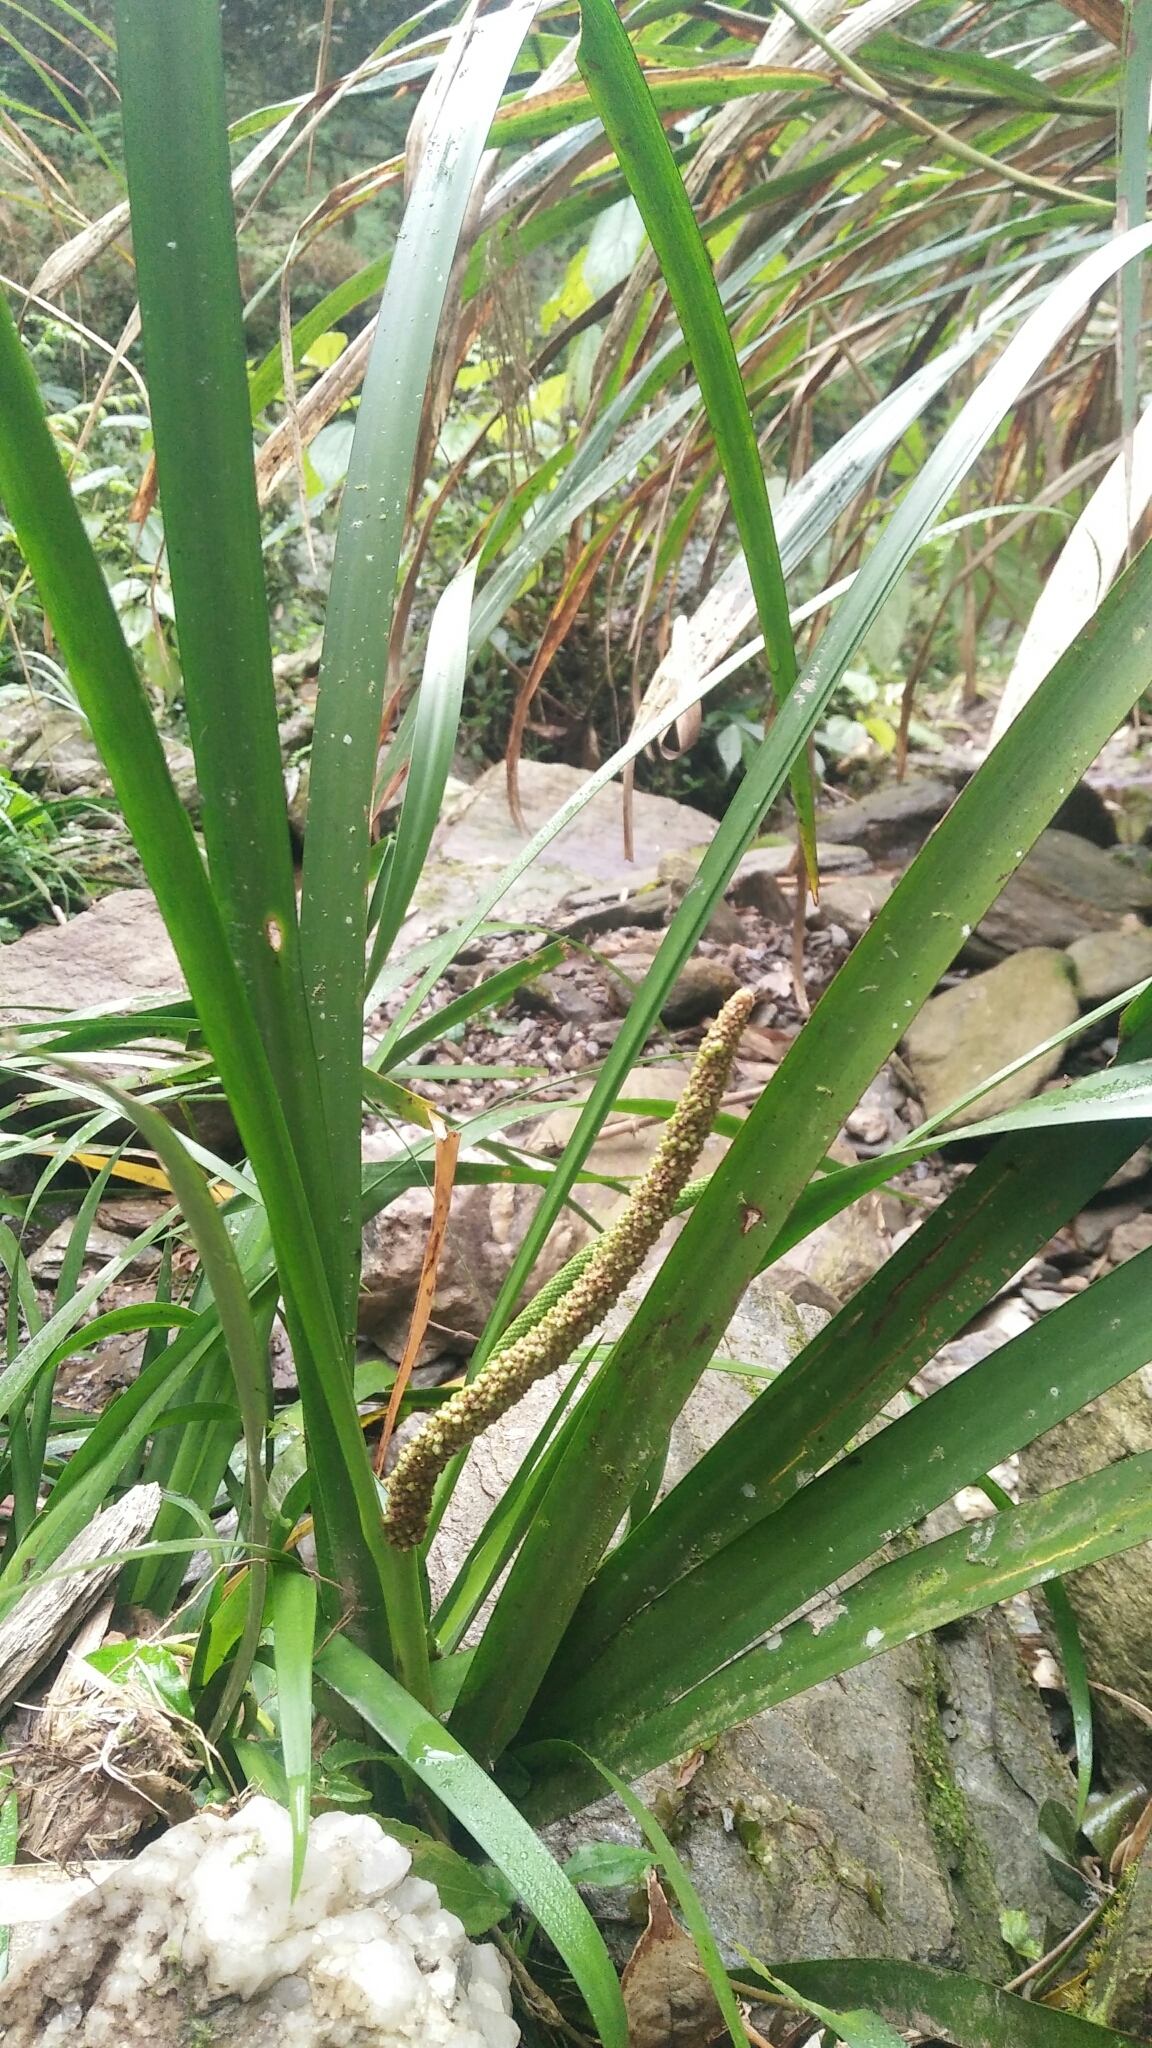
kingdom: Plantae
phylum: Tracheophyta
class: Liliopsida
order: Acorales
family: Acoraceae
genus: Acorus
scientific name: Acorus gramineus
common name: Slender sweet-flag
